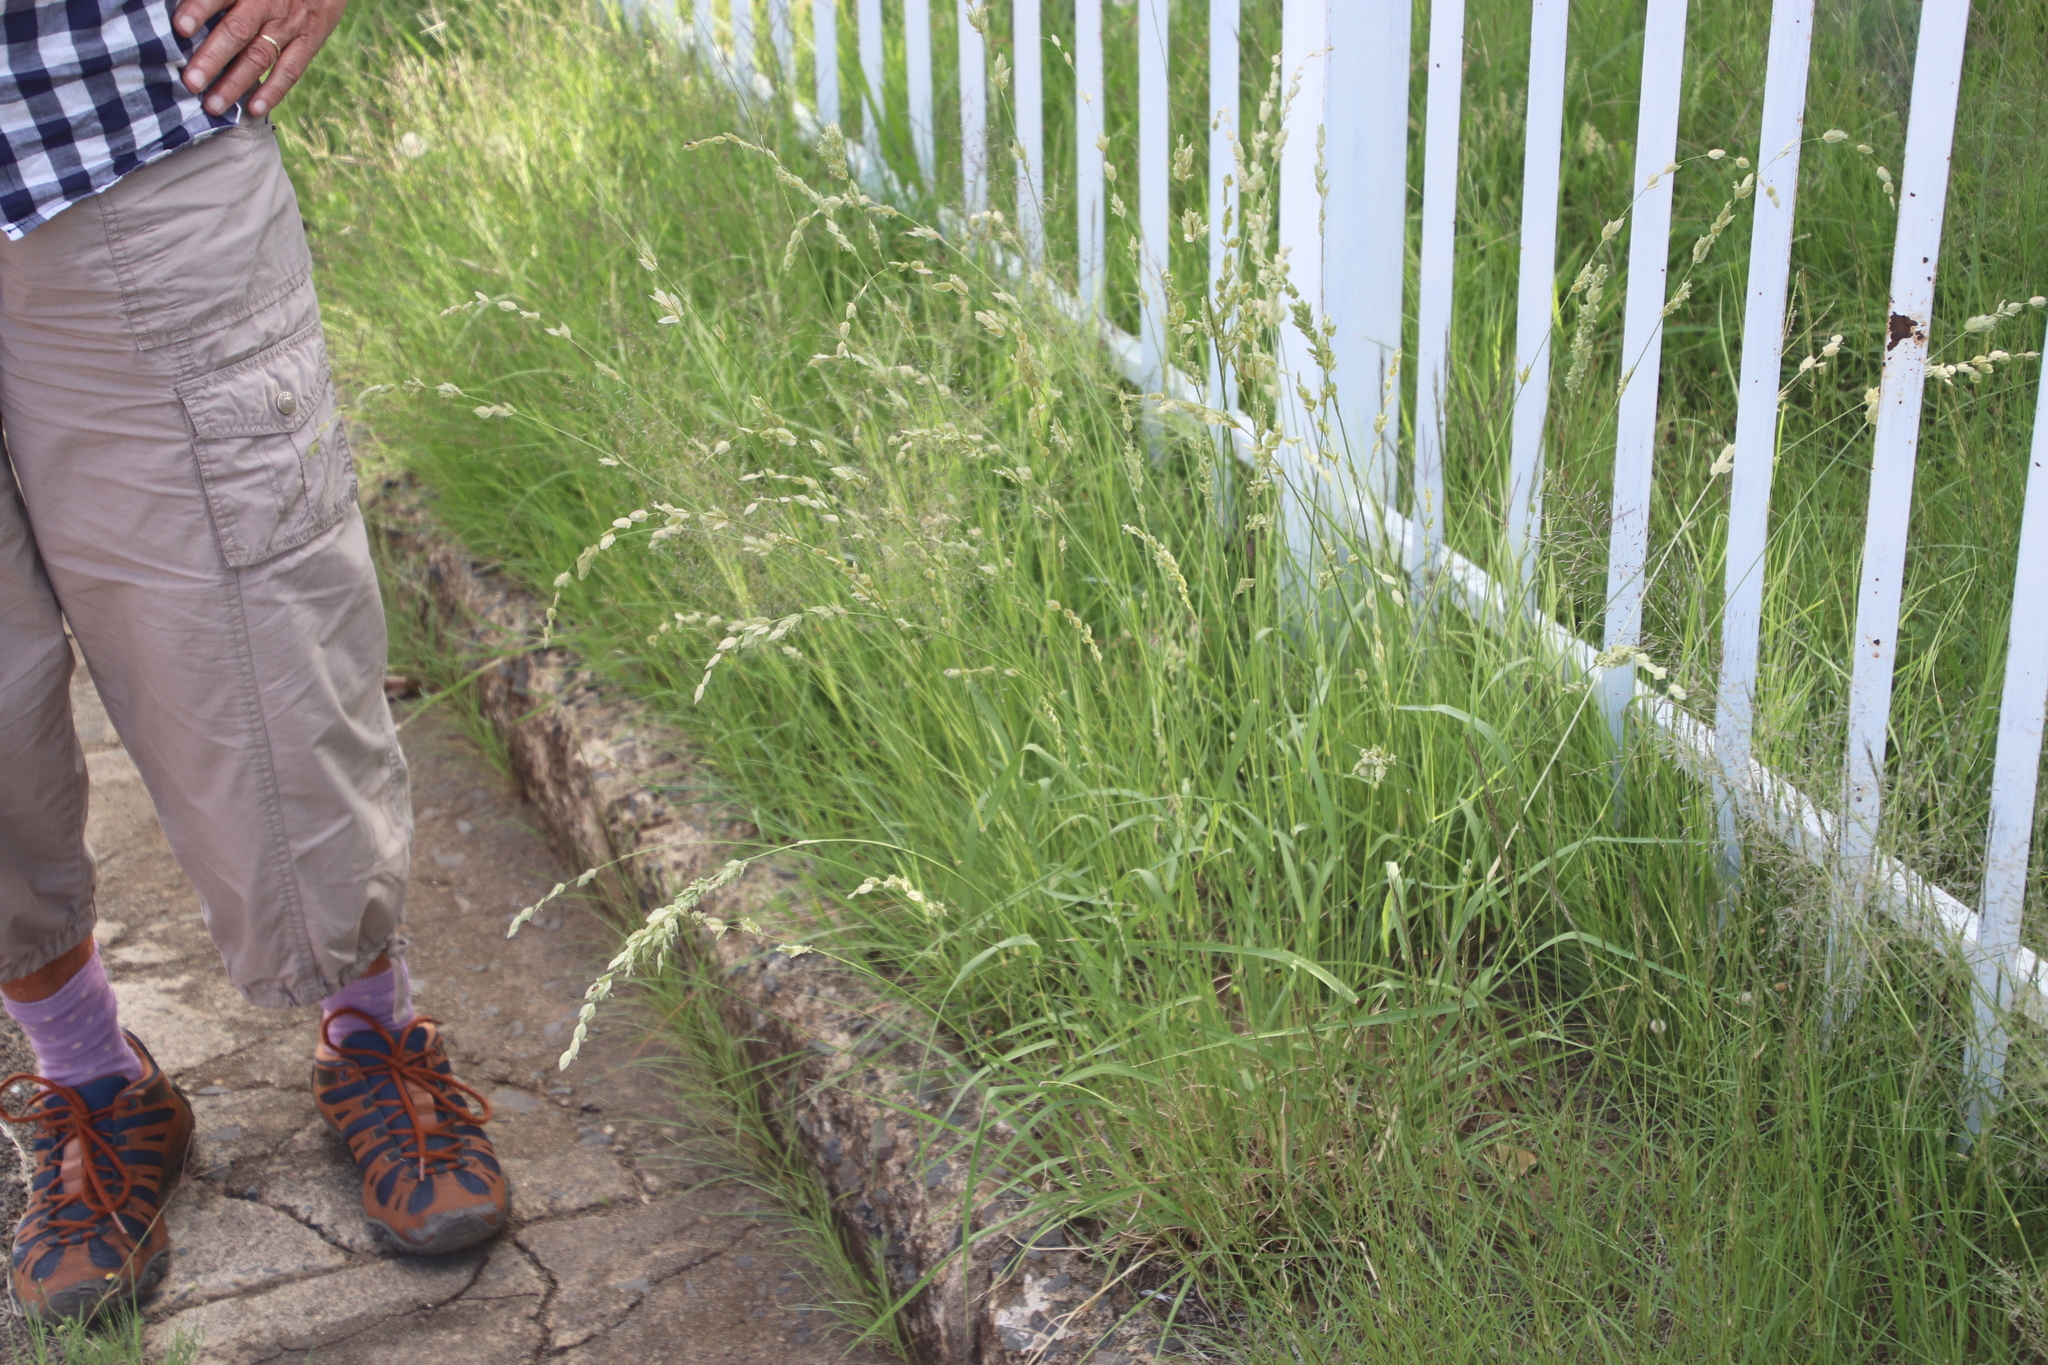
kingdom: Plantae
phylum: Tracheophyta
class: Liliopsida
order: Poales
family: Poaceae
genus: Eragrostis
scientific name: Eragrostis superba
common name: Wilman lovegrass
